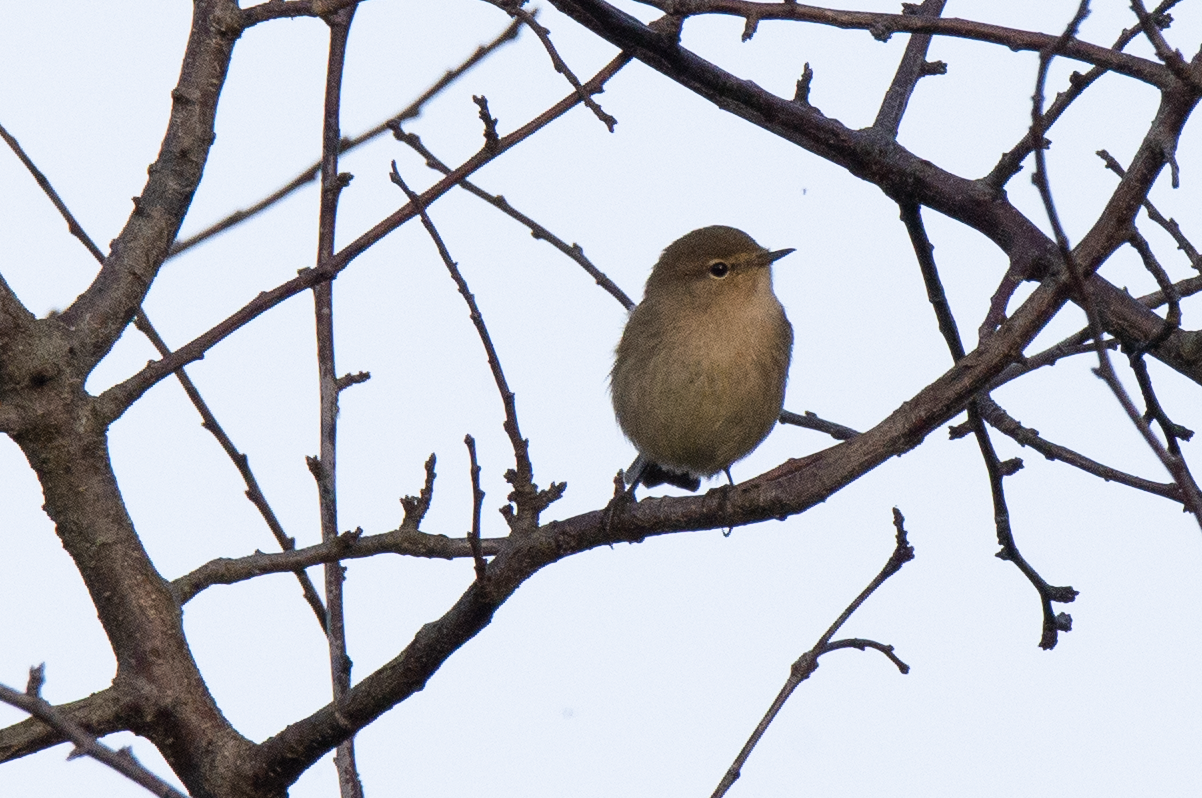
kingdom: Animalia
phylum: Chordata
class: Aves
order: Passeriformes
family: Phylloscopidae
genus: Phylloscopus
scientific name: Phylloscopus collybita
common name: Common chiffchaff
